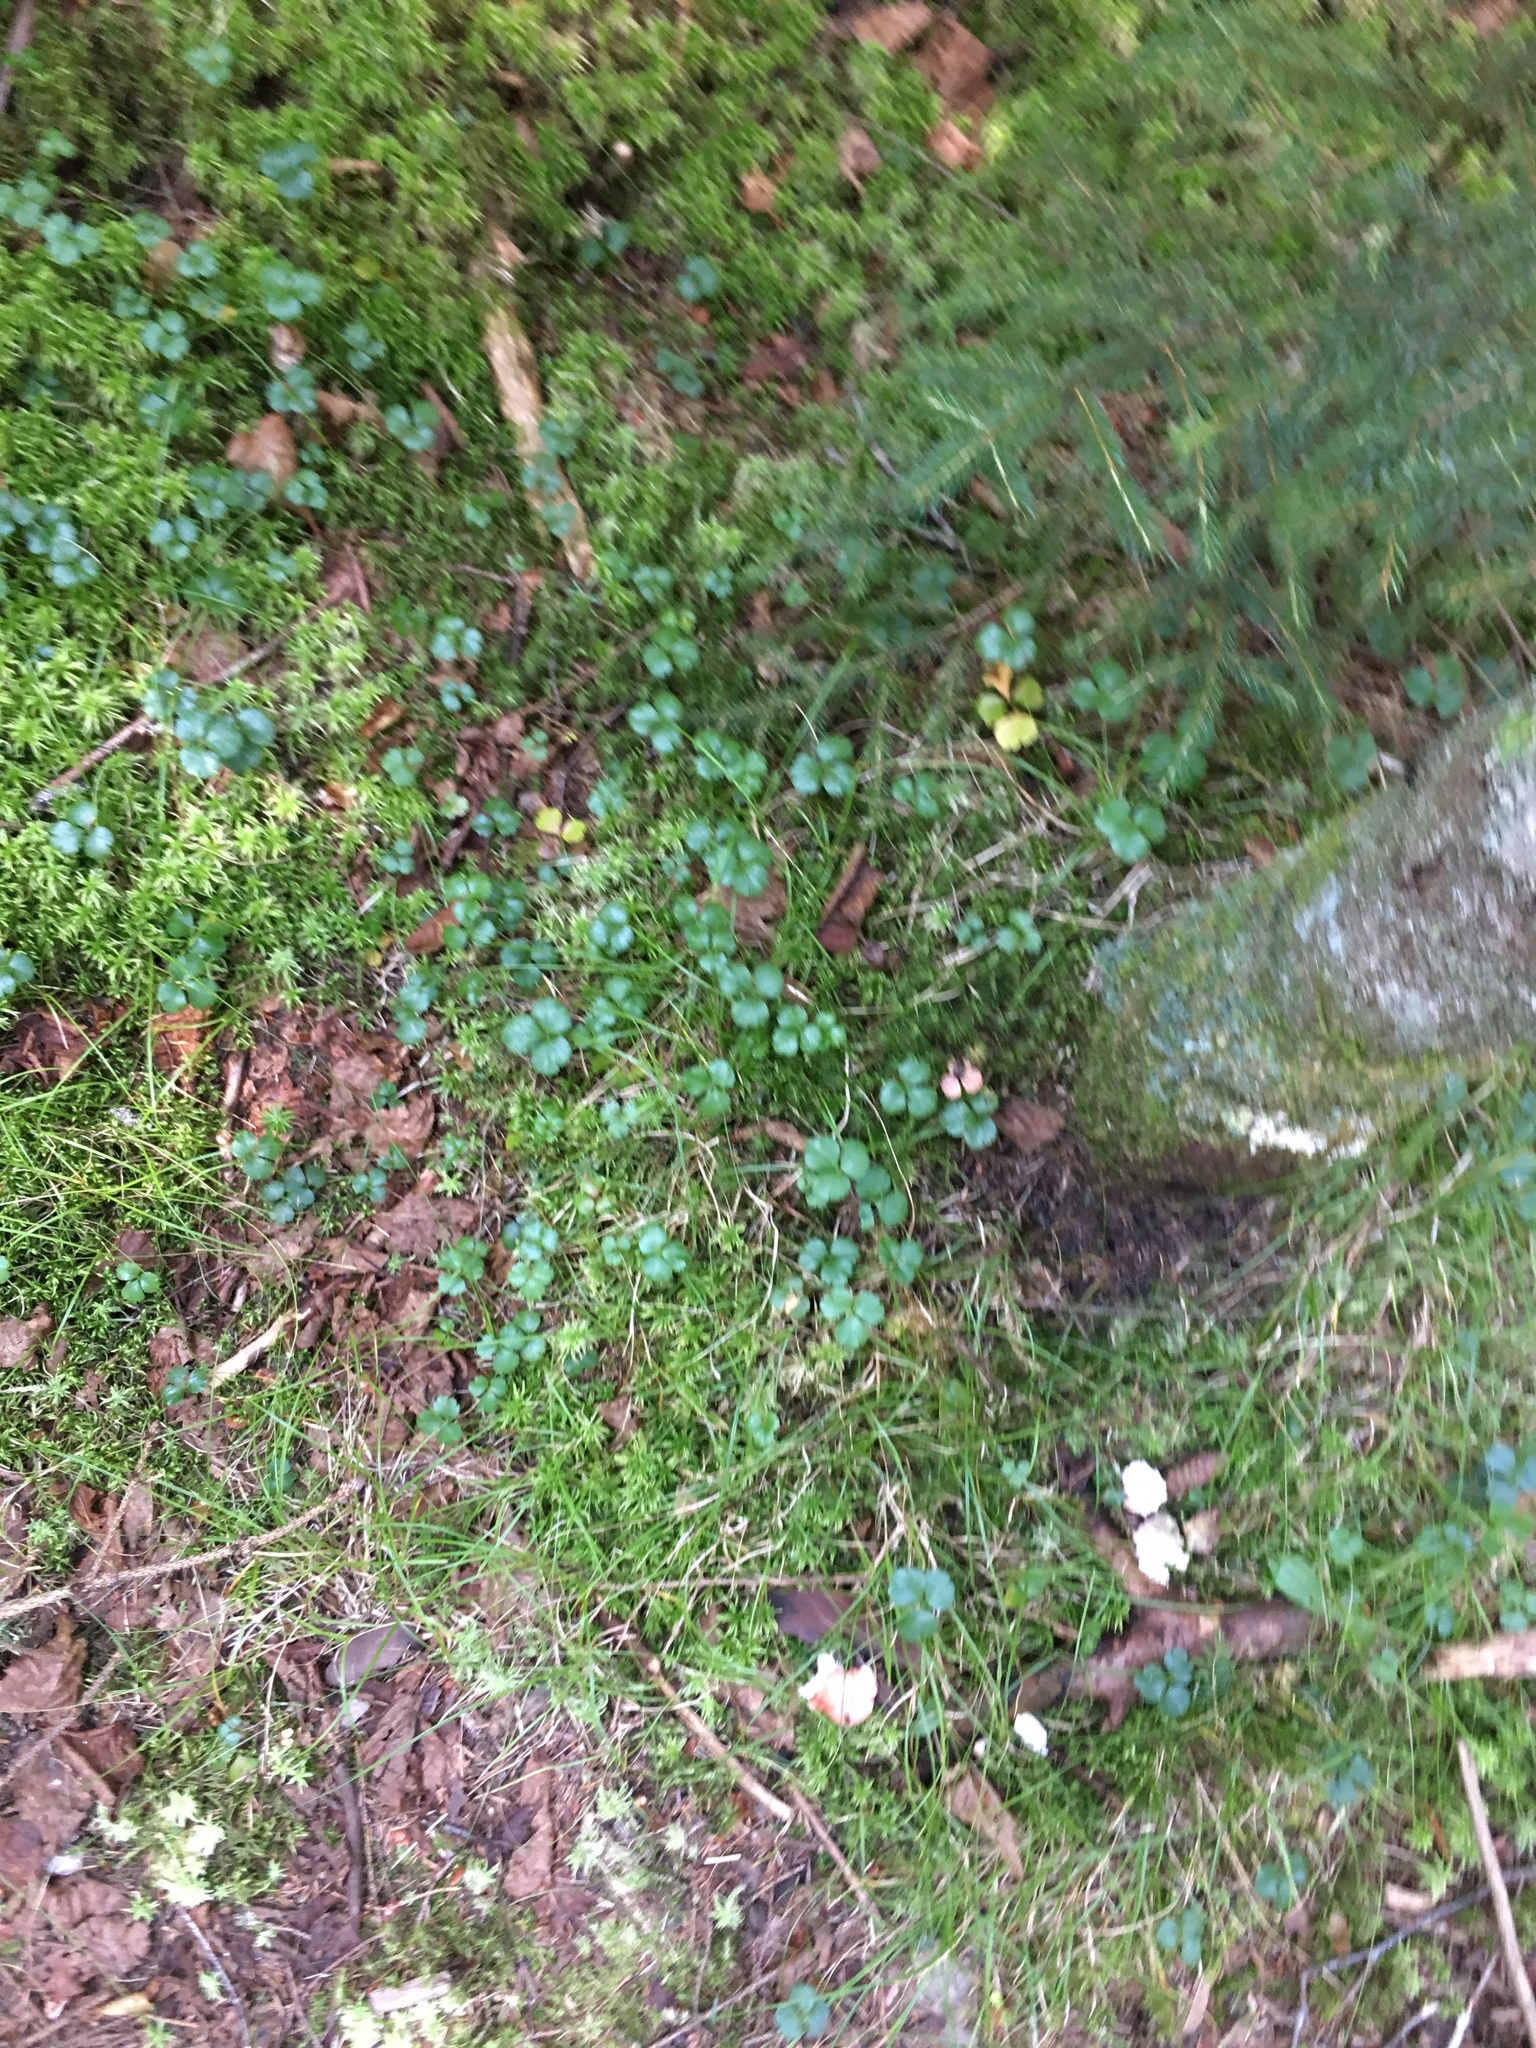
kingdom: Plantae
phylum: Tracheophyta
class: Magnoliopsida
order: Ranunculales
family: Ranunculaceae
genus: Coptis
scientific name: Coptis trifolia
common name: Canker-root
